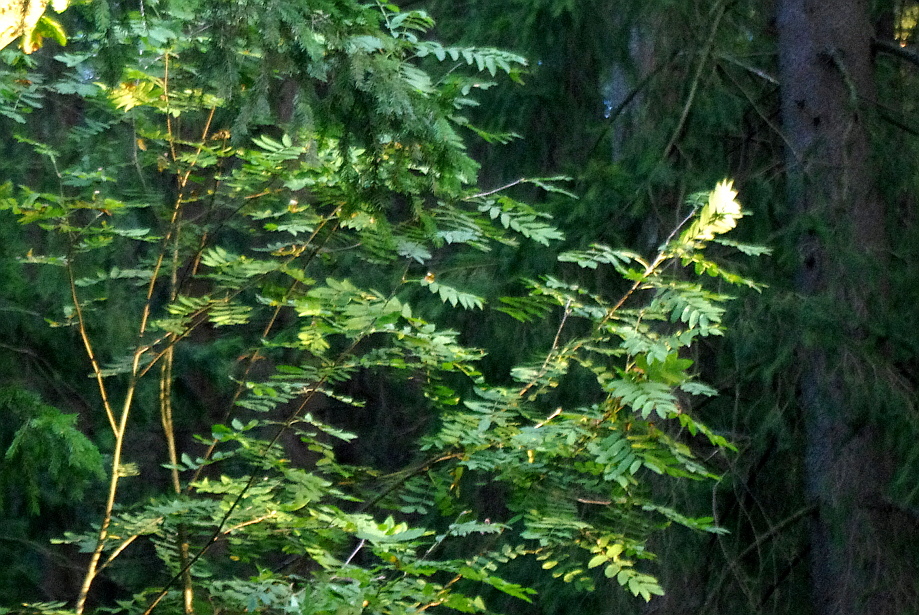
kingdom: Plantae
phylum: Tracheophyta
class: Magnoliopsida
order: Rosales
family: Rosaceae
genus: Sorbus
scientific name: Sorbus aucuparia
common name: Rowan
